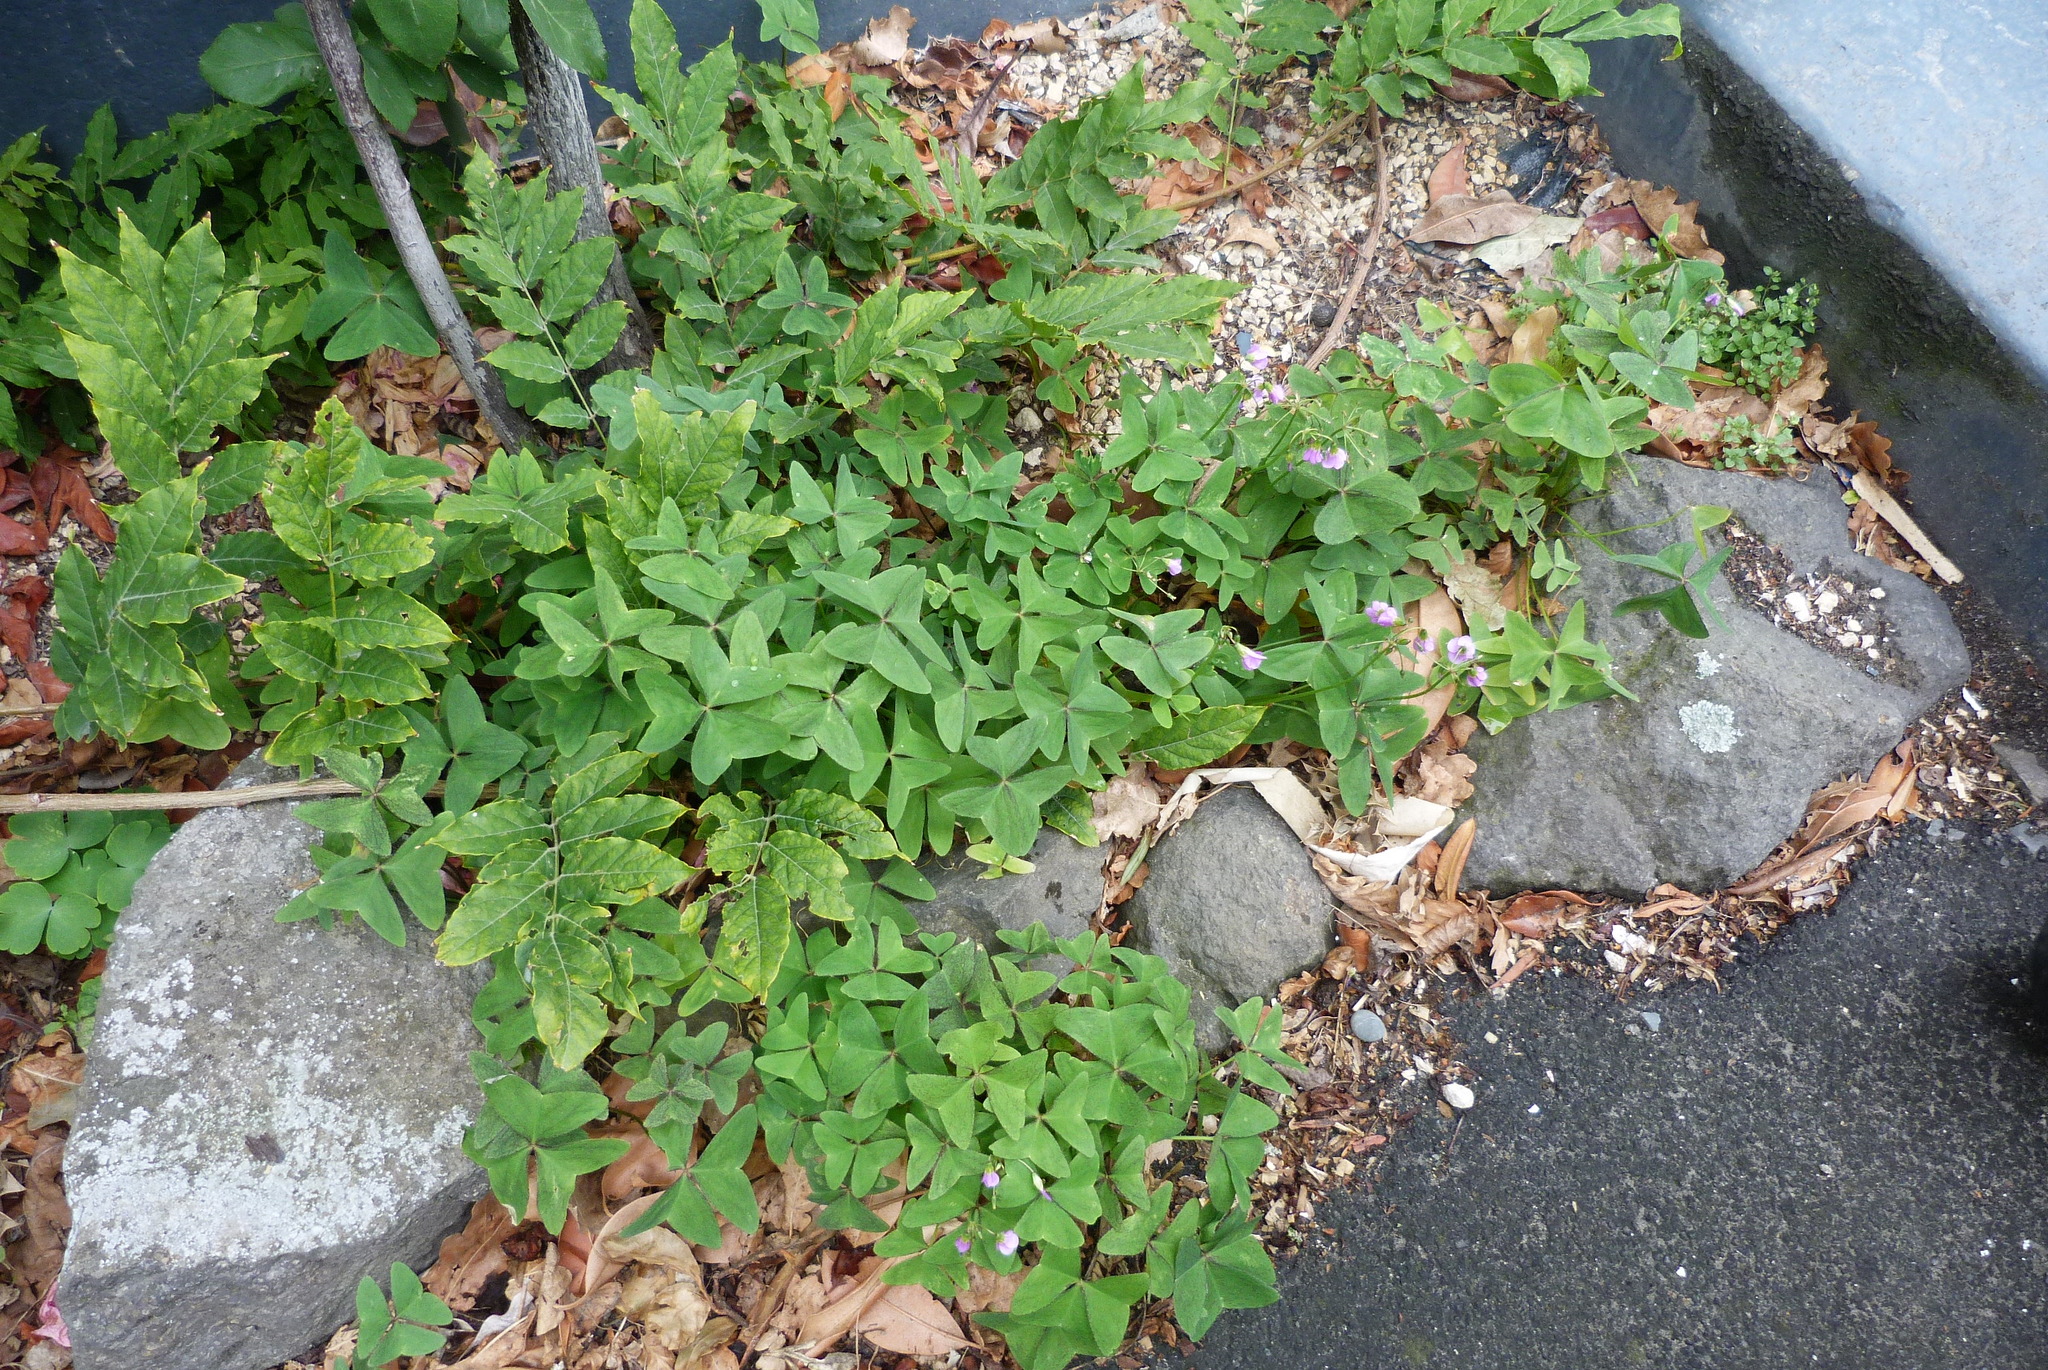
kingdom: Plantae
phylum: Tracheophyta
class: Magnoliopsida
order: Oxalidales
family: Oxalidaceae
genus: Oxalis
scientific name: Oxalis latifolia
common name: Garden pink-sorrel
